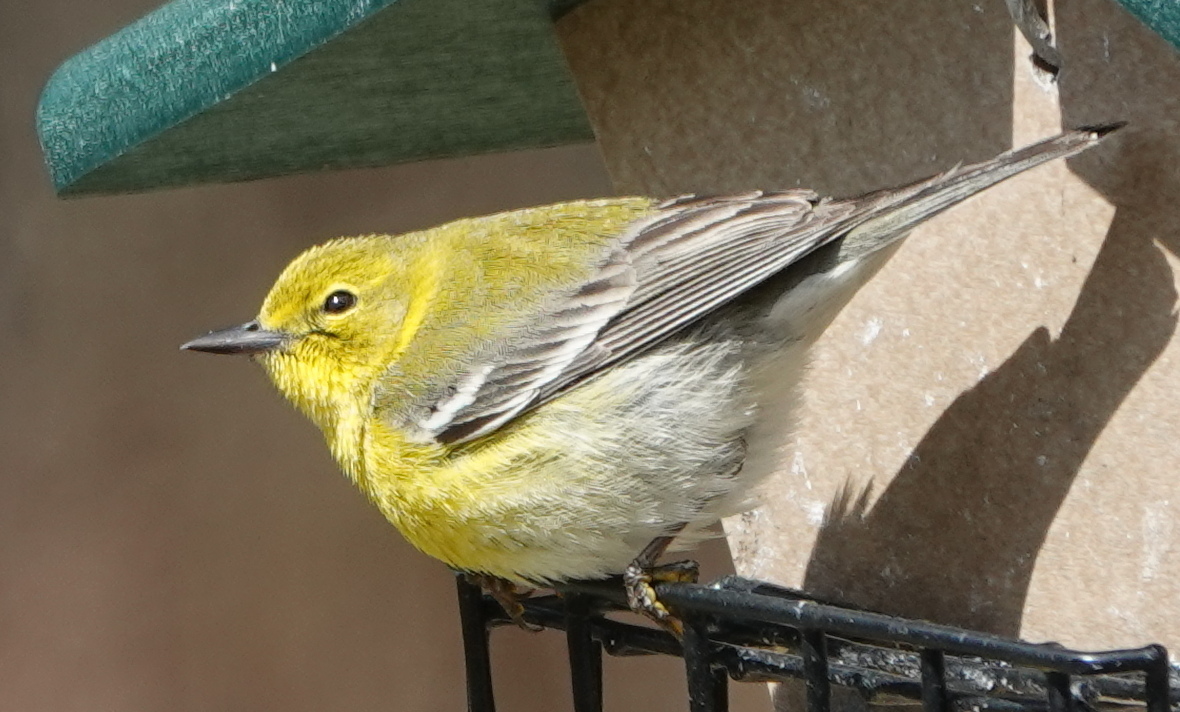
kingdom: Animalia
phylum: Chordata
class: Aves
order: Passeriformes
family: Parulidae
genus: Setophaga
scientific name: Setophaga pinus
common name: Pine warbler
